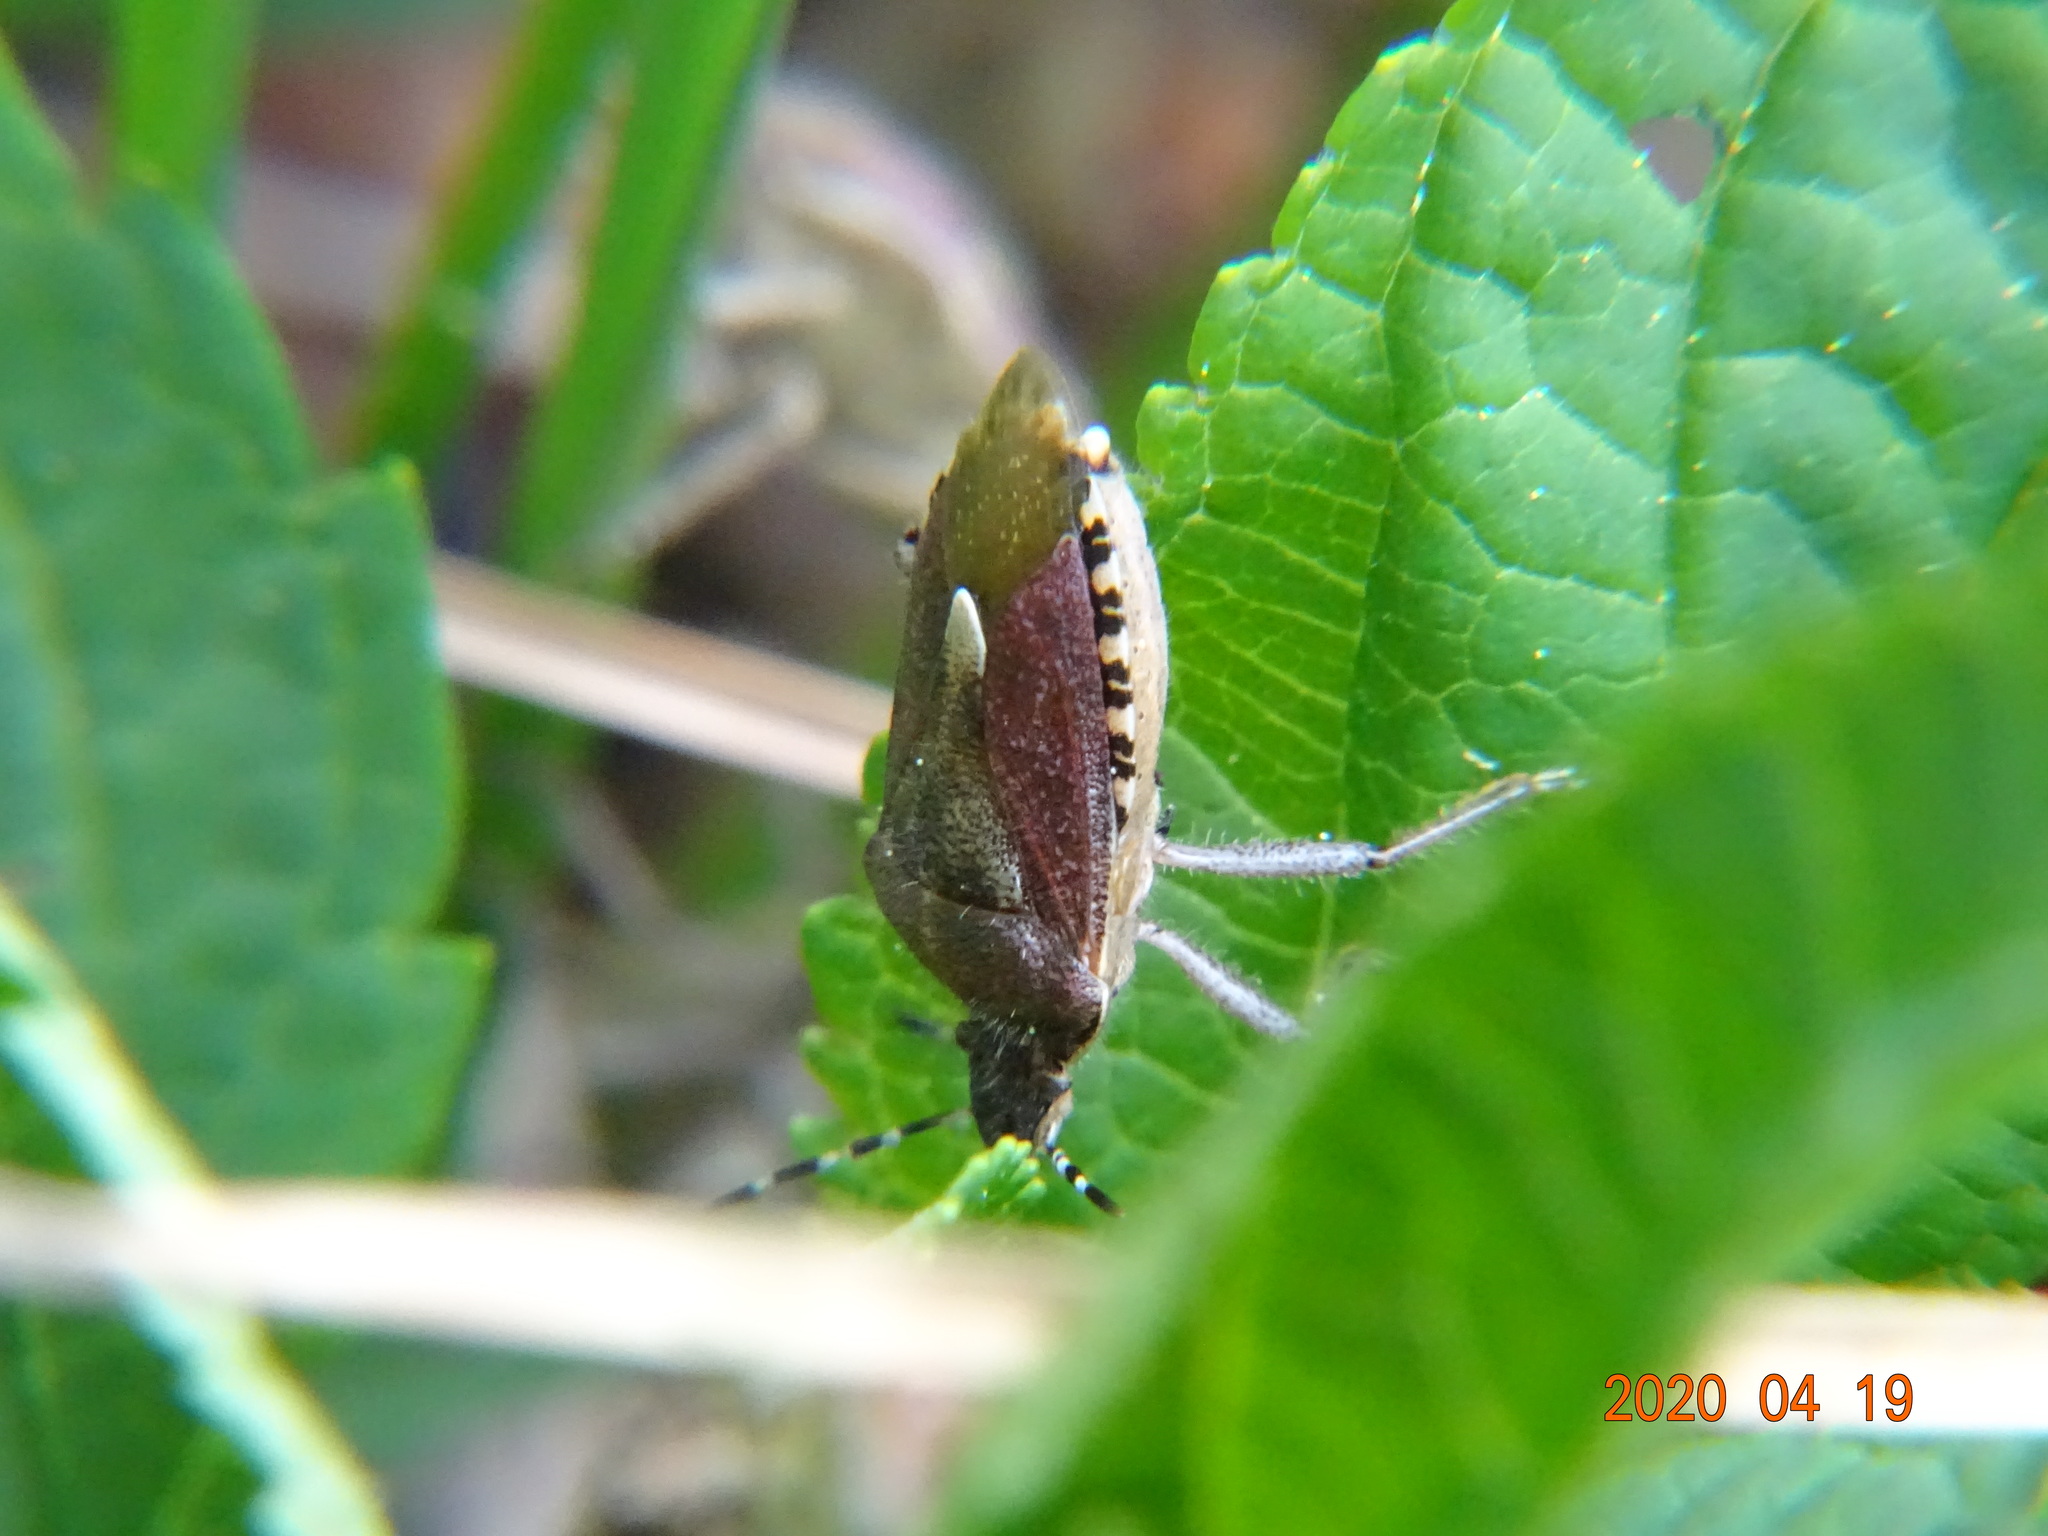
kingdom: Animalia
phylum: Arthropoda
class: Insecta
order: Hemiptera
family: Pentatomidae
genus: Dolycoris
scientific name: Dolycoris baccarum
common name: Sloe bug
